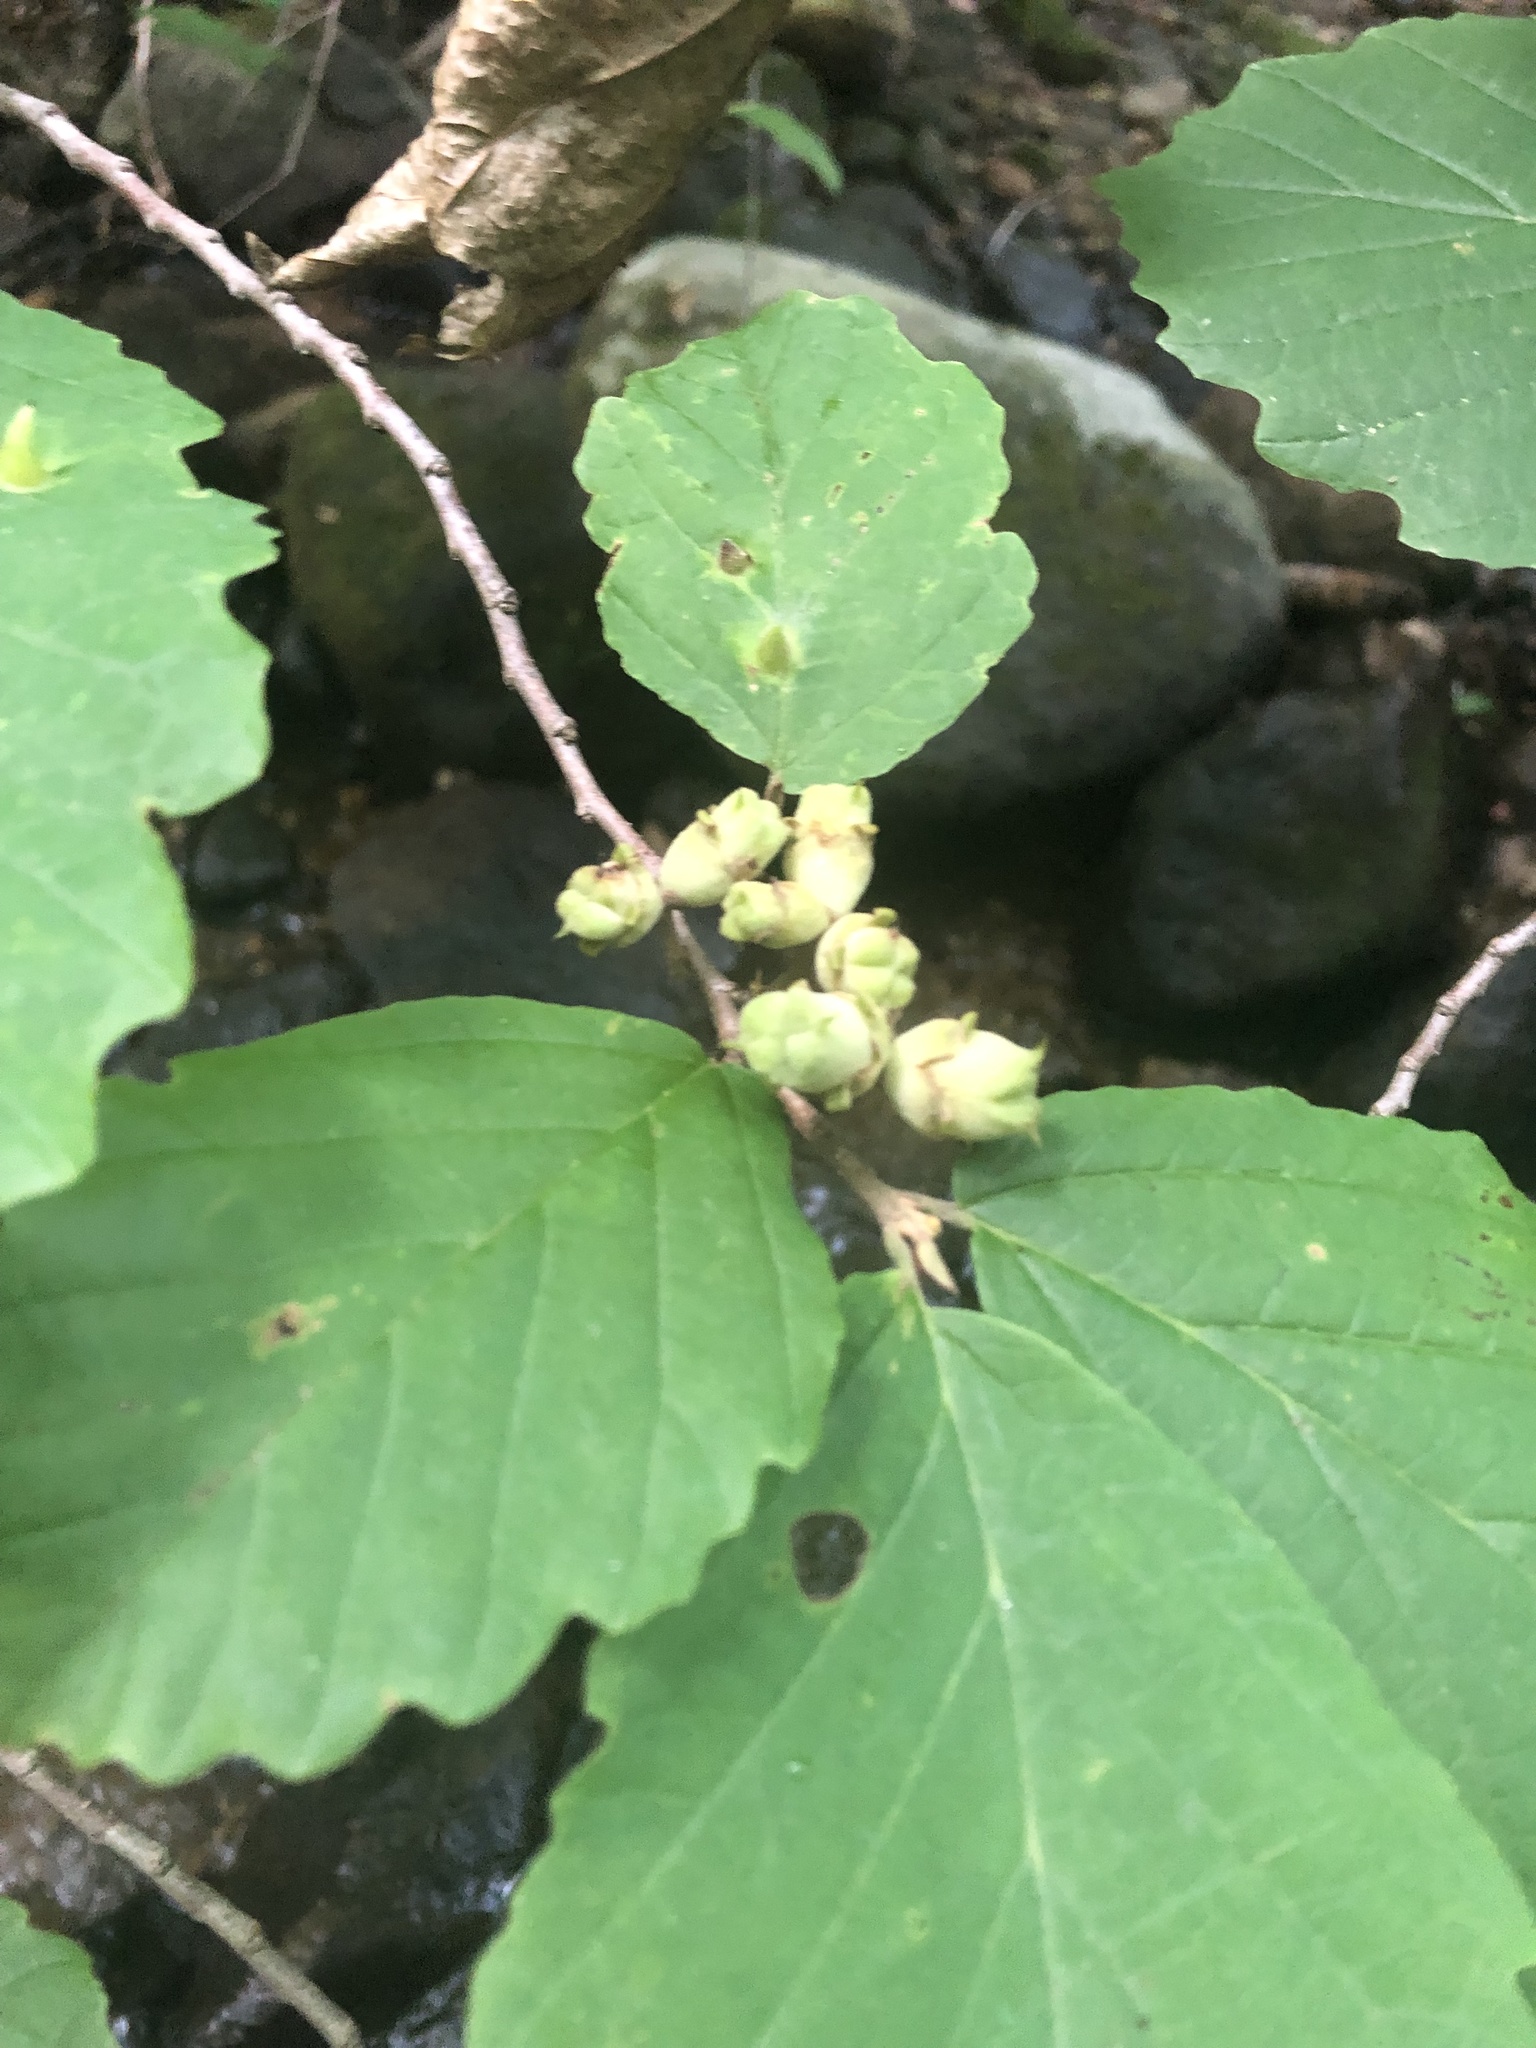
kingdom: Plantae
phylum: Tracheophyta
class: Magnoliopsida
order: Saxifragales
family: Hamamelidaceae
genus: Hamamelis
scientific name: Hamamelis virginiana
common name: Witch-hazel
